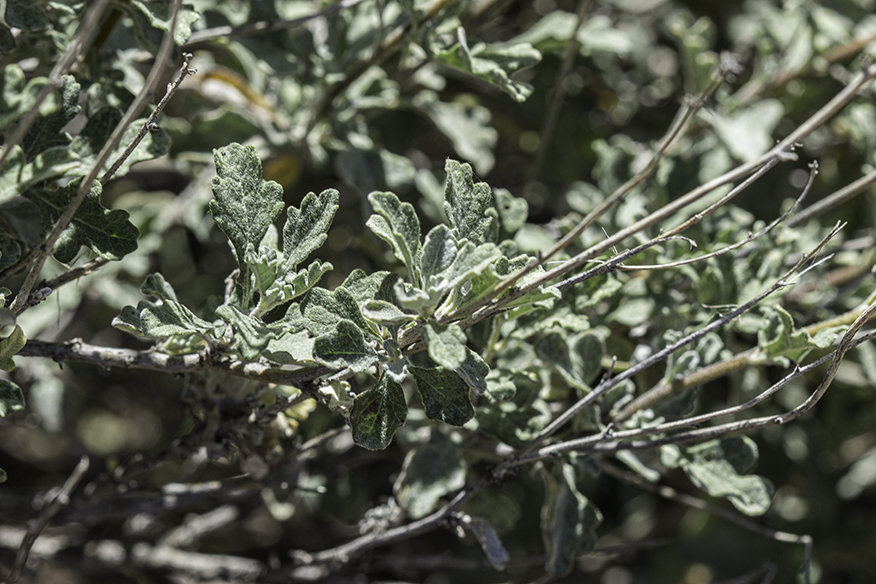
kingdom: Plantae
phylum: Tracheophyta
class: Magnoliopsida
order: Asterales
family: Asteraceae
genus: Parthenium
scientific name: Parthenium incanum
